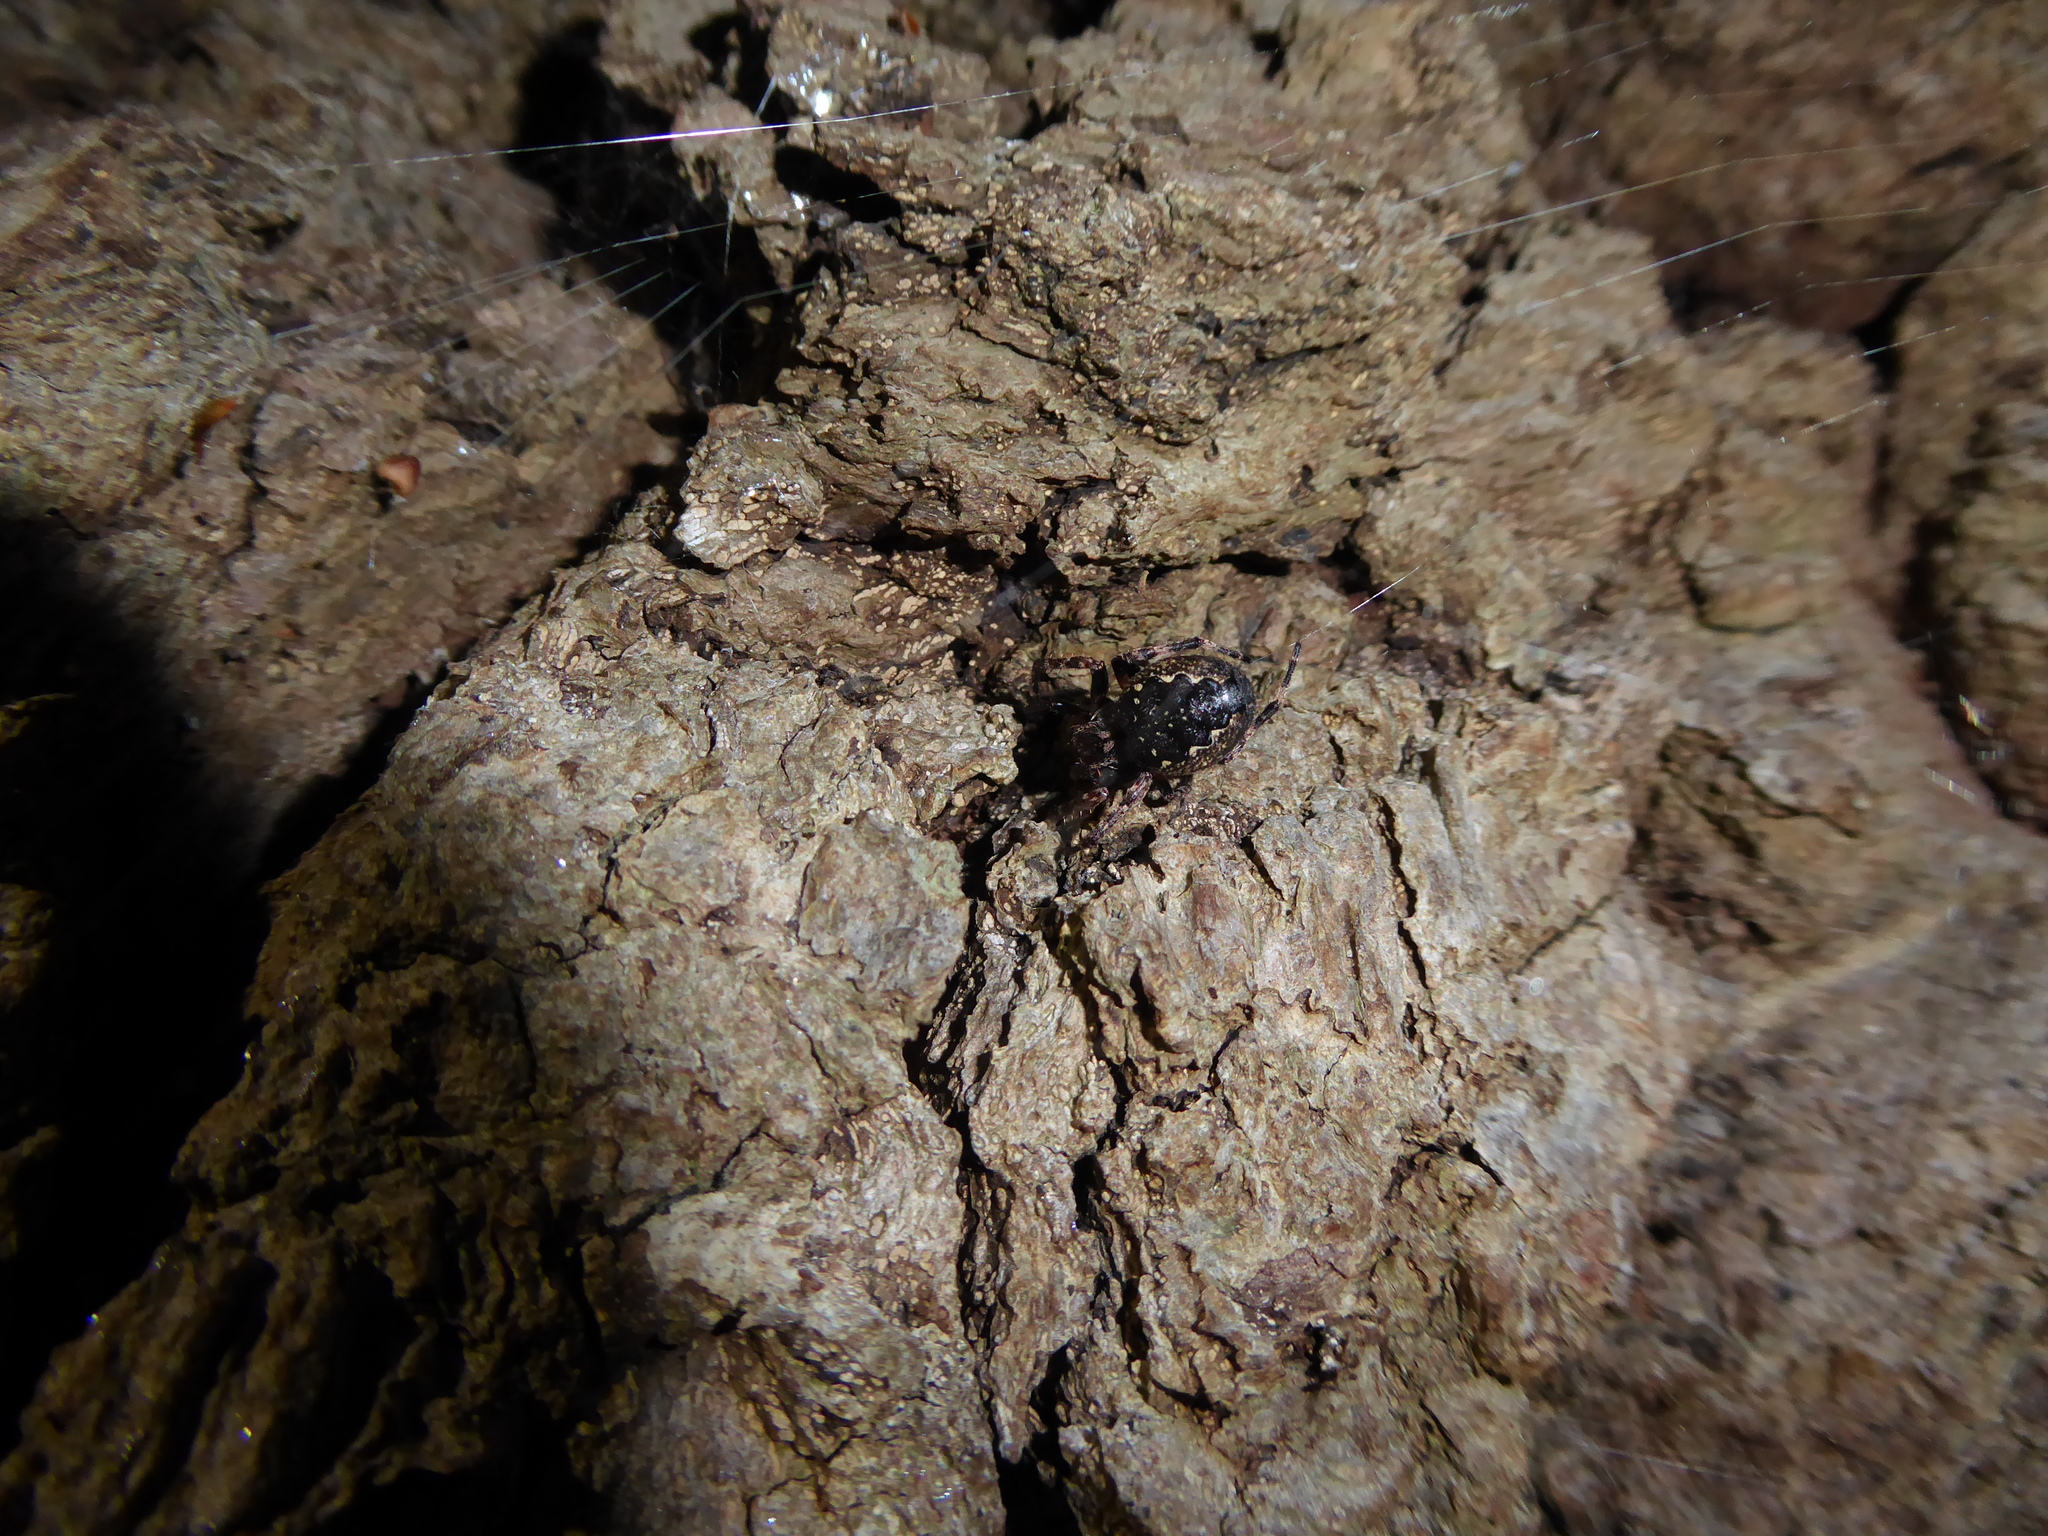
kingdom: Animalia
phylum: Arthropoda
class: Arachnida
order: Araneae
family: Araneidae
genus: Nuctenea
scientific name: Nuctenea umbratica
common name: Toad spider
